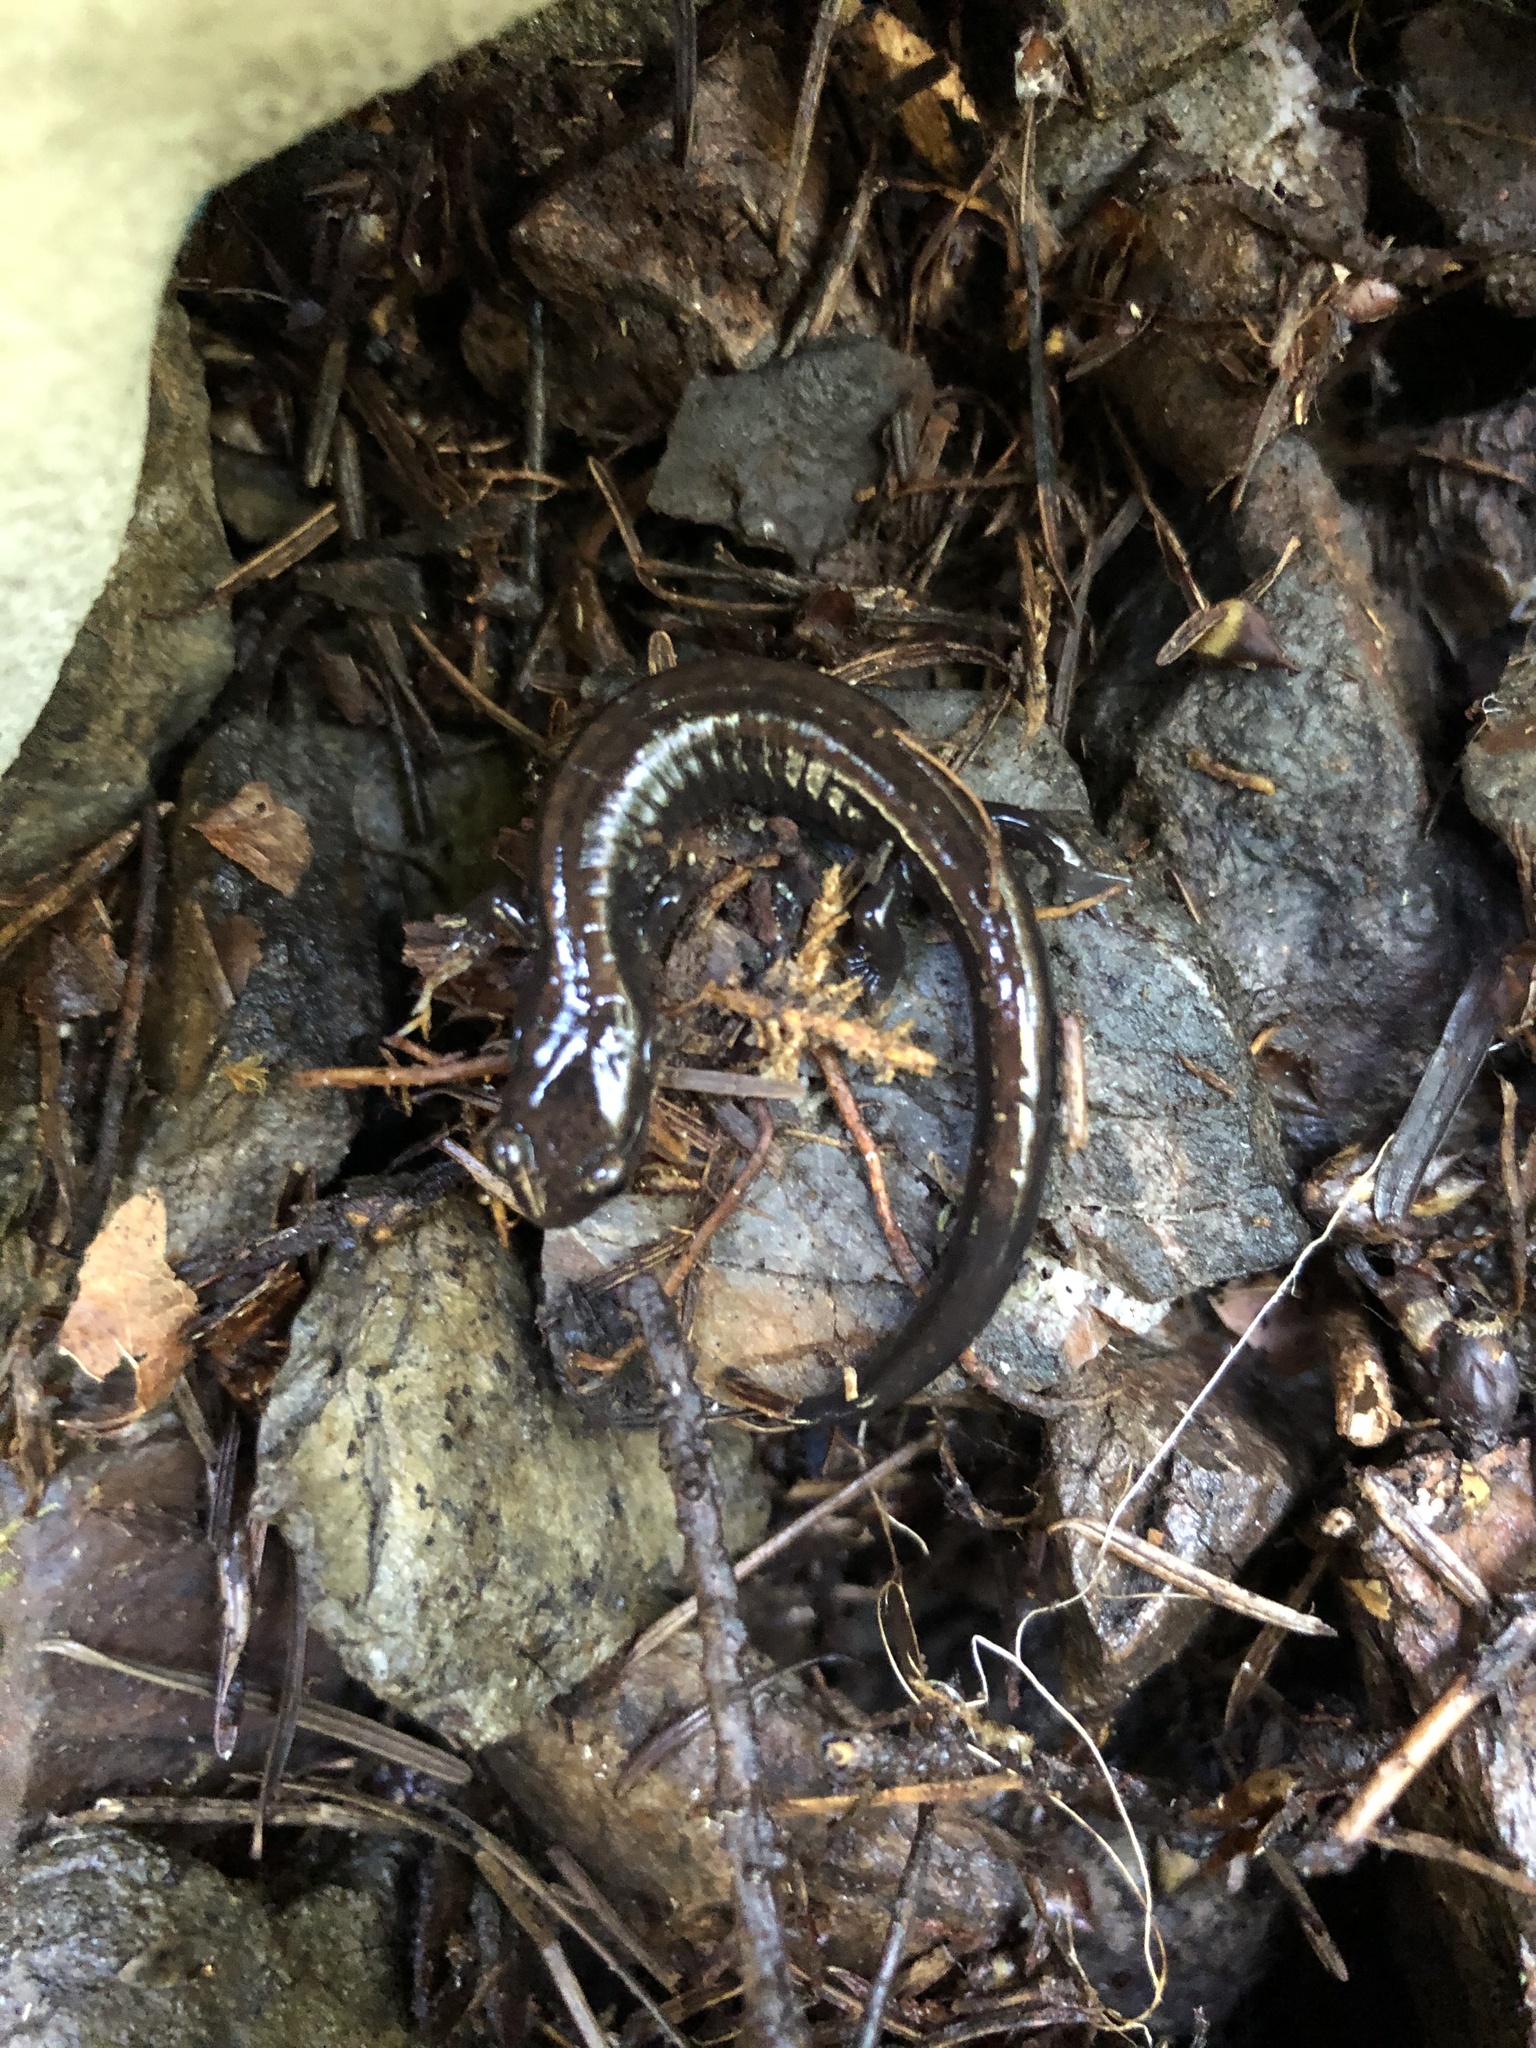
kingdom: Animalia
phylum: Chordata
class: Amphibia
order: Caudata
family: Plethodontidae
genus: Plethodon
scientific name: Plethodon elongatus
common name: Del norte salamander
